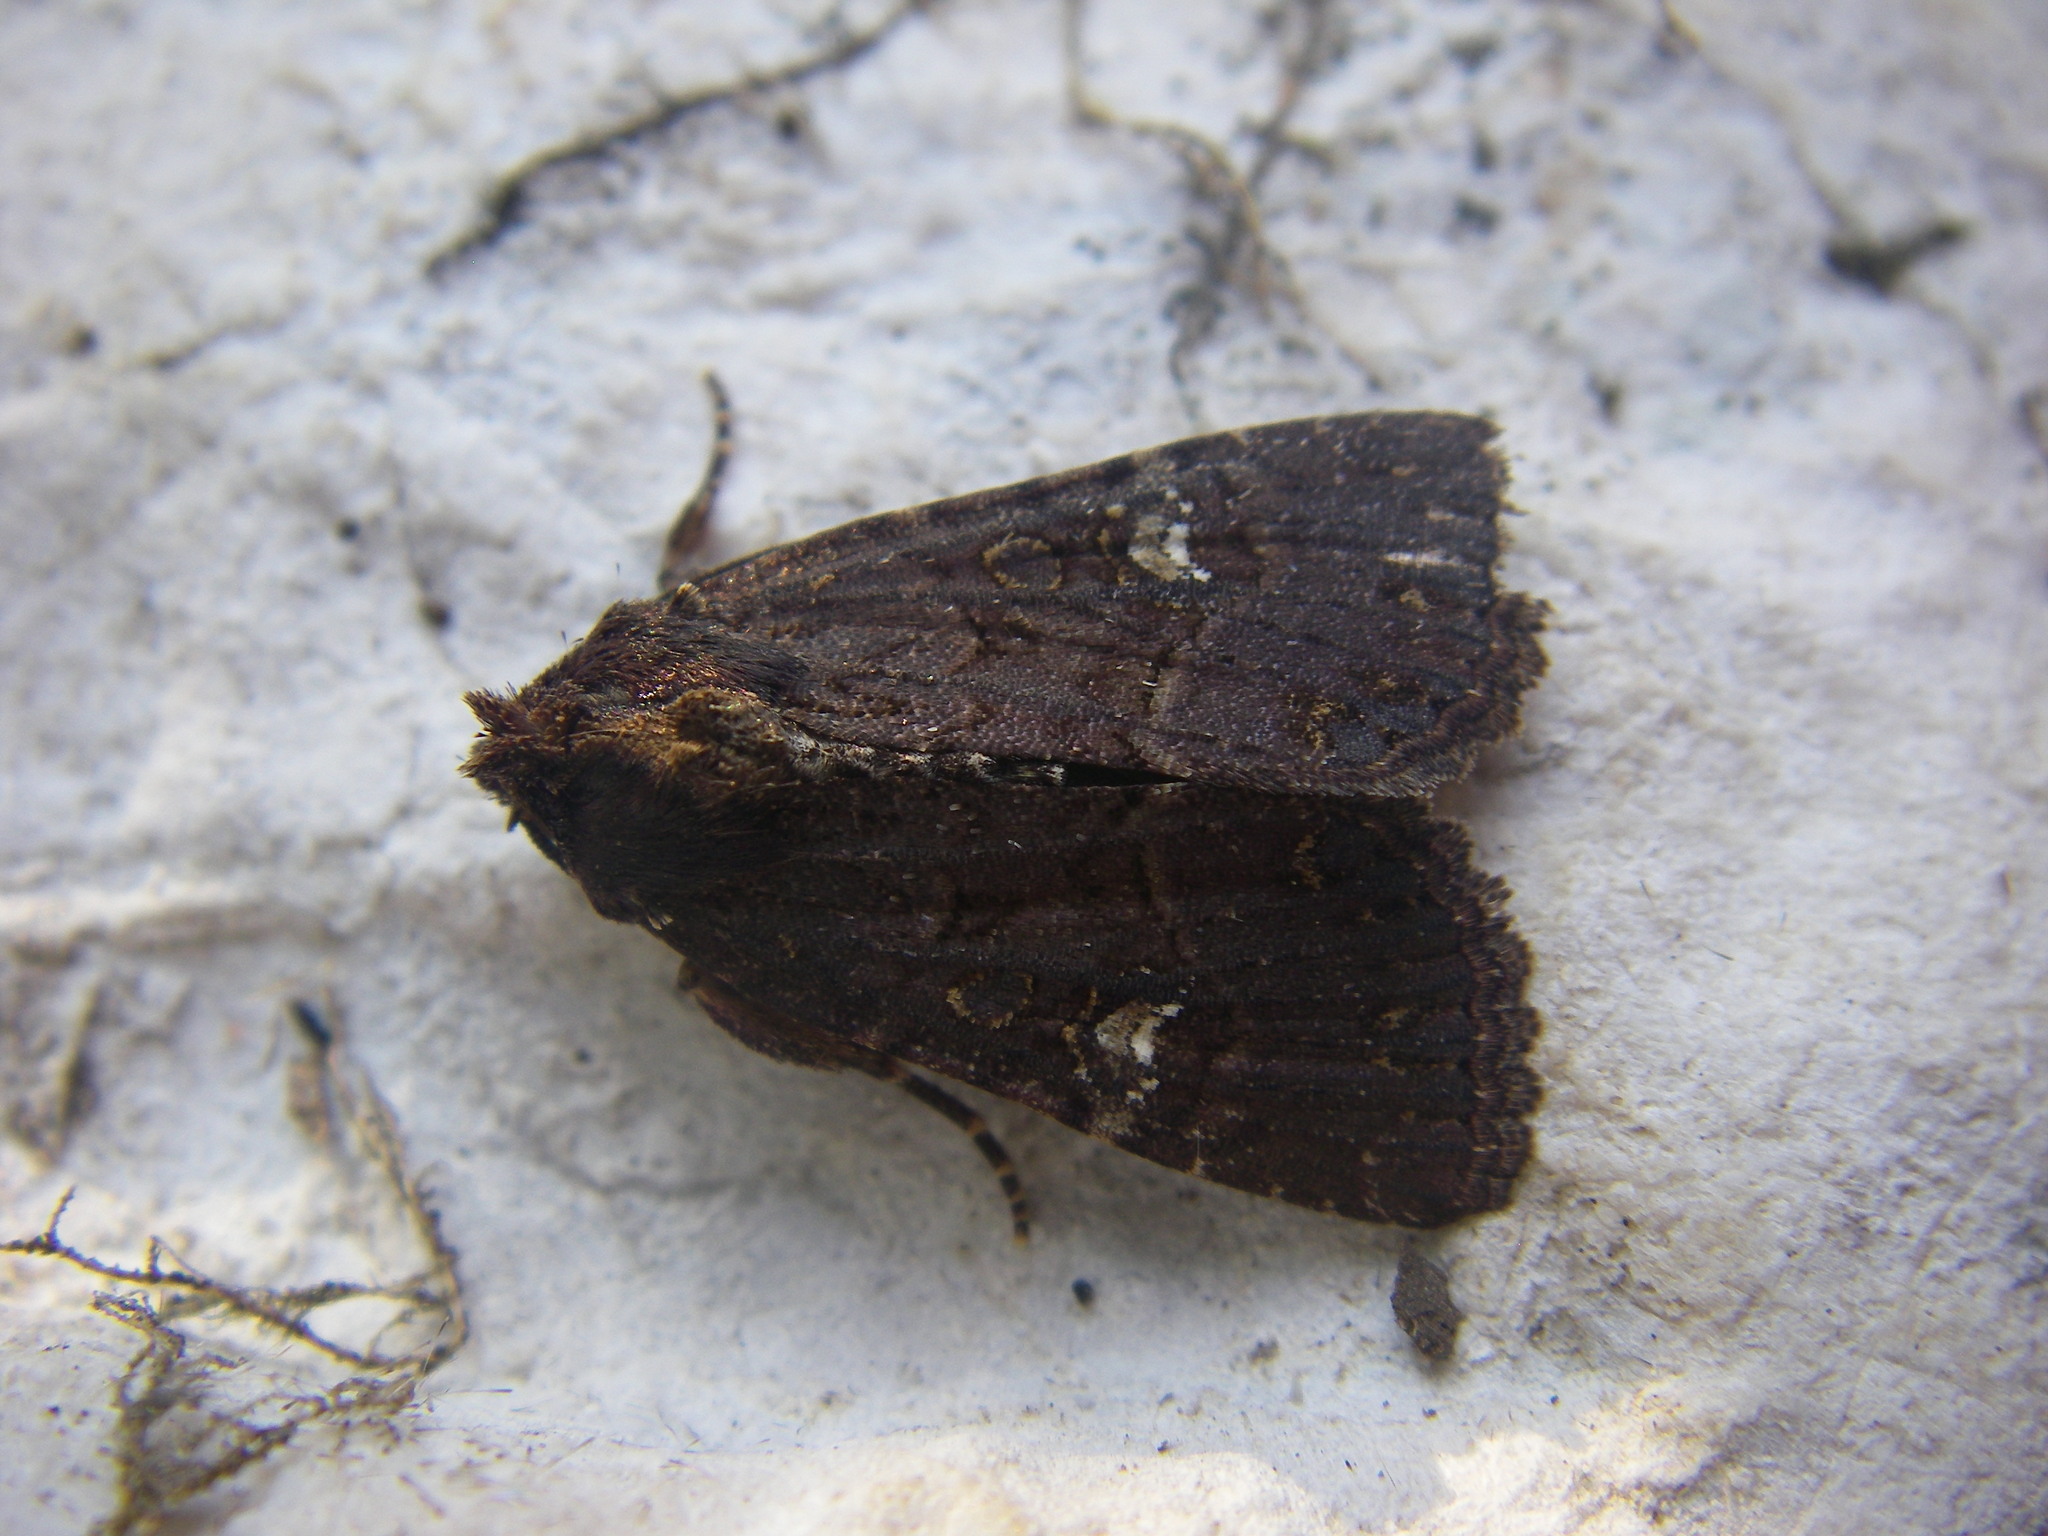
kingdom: Animalia
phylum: Arthropoda
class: Insecta
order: Lepidoptera
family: Noctuidae
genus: Mesapamea
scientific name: Mesapamea
